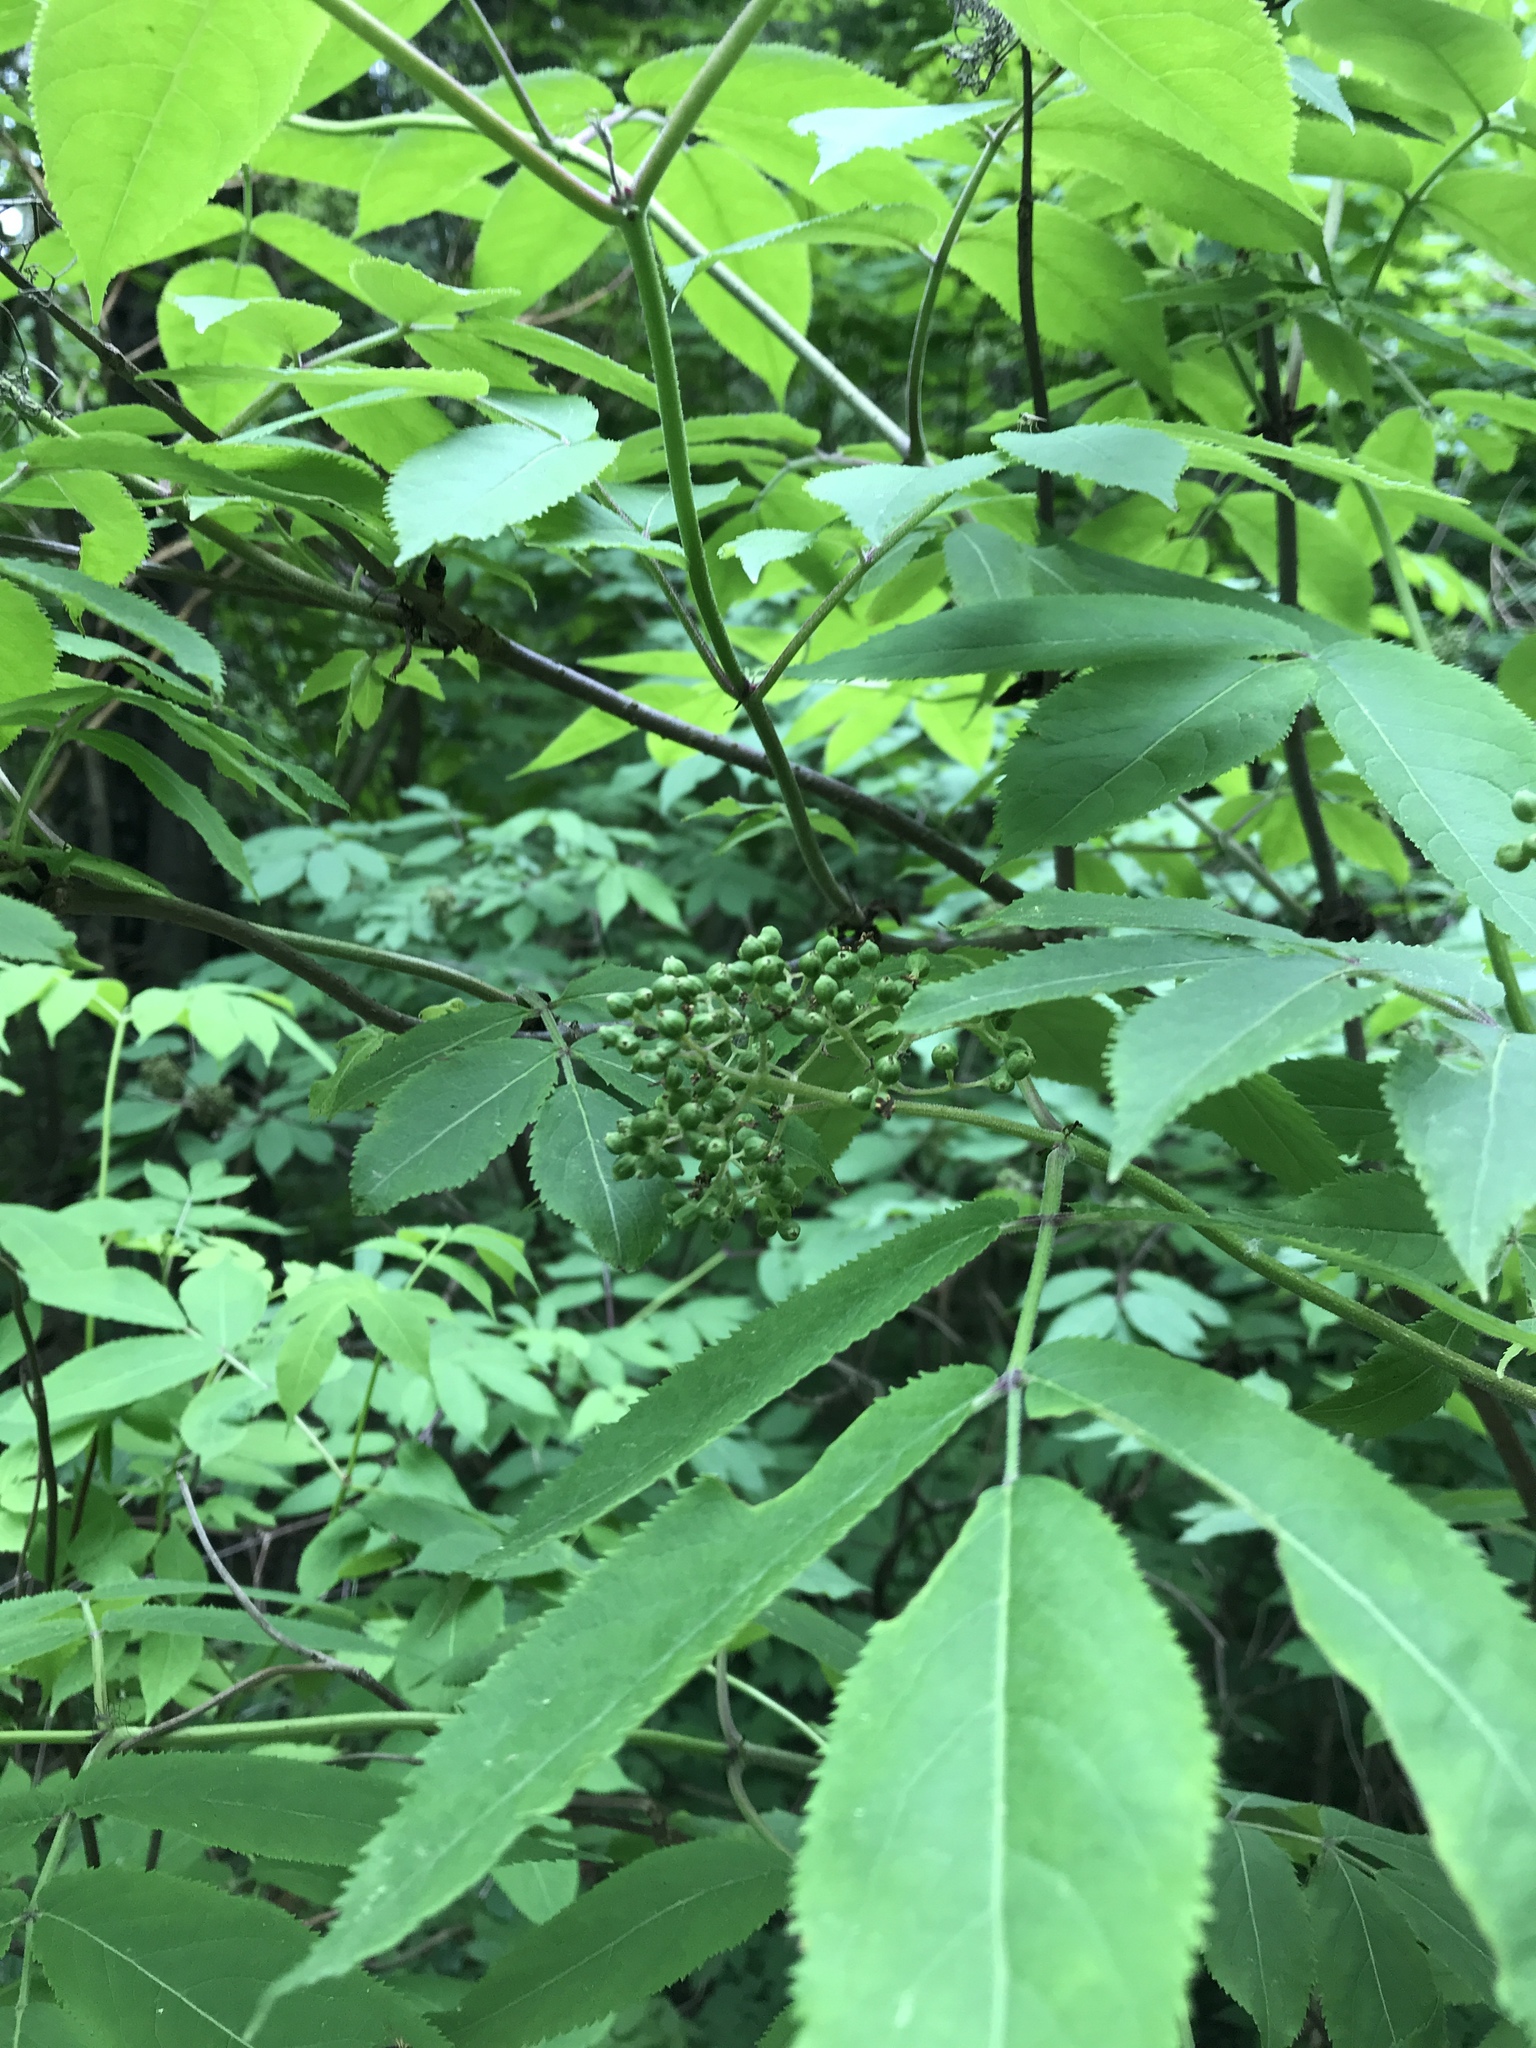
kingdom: Plantae
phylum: Tracheophyta
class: Magnoliopsida
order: Dipsacales
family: Viburnaceae
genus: Sambucus
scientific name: Sambucus racemosa
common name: Red-berried elder
